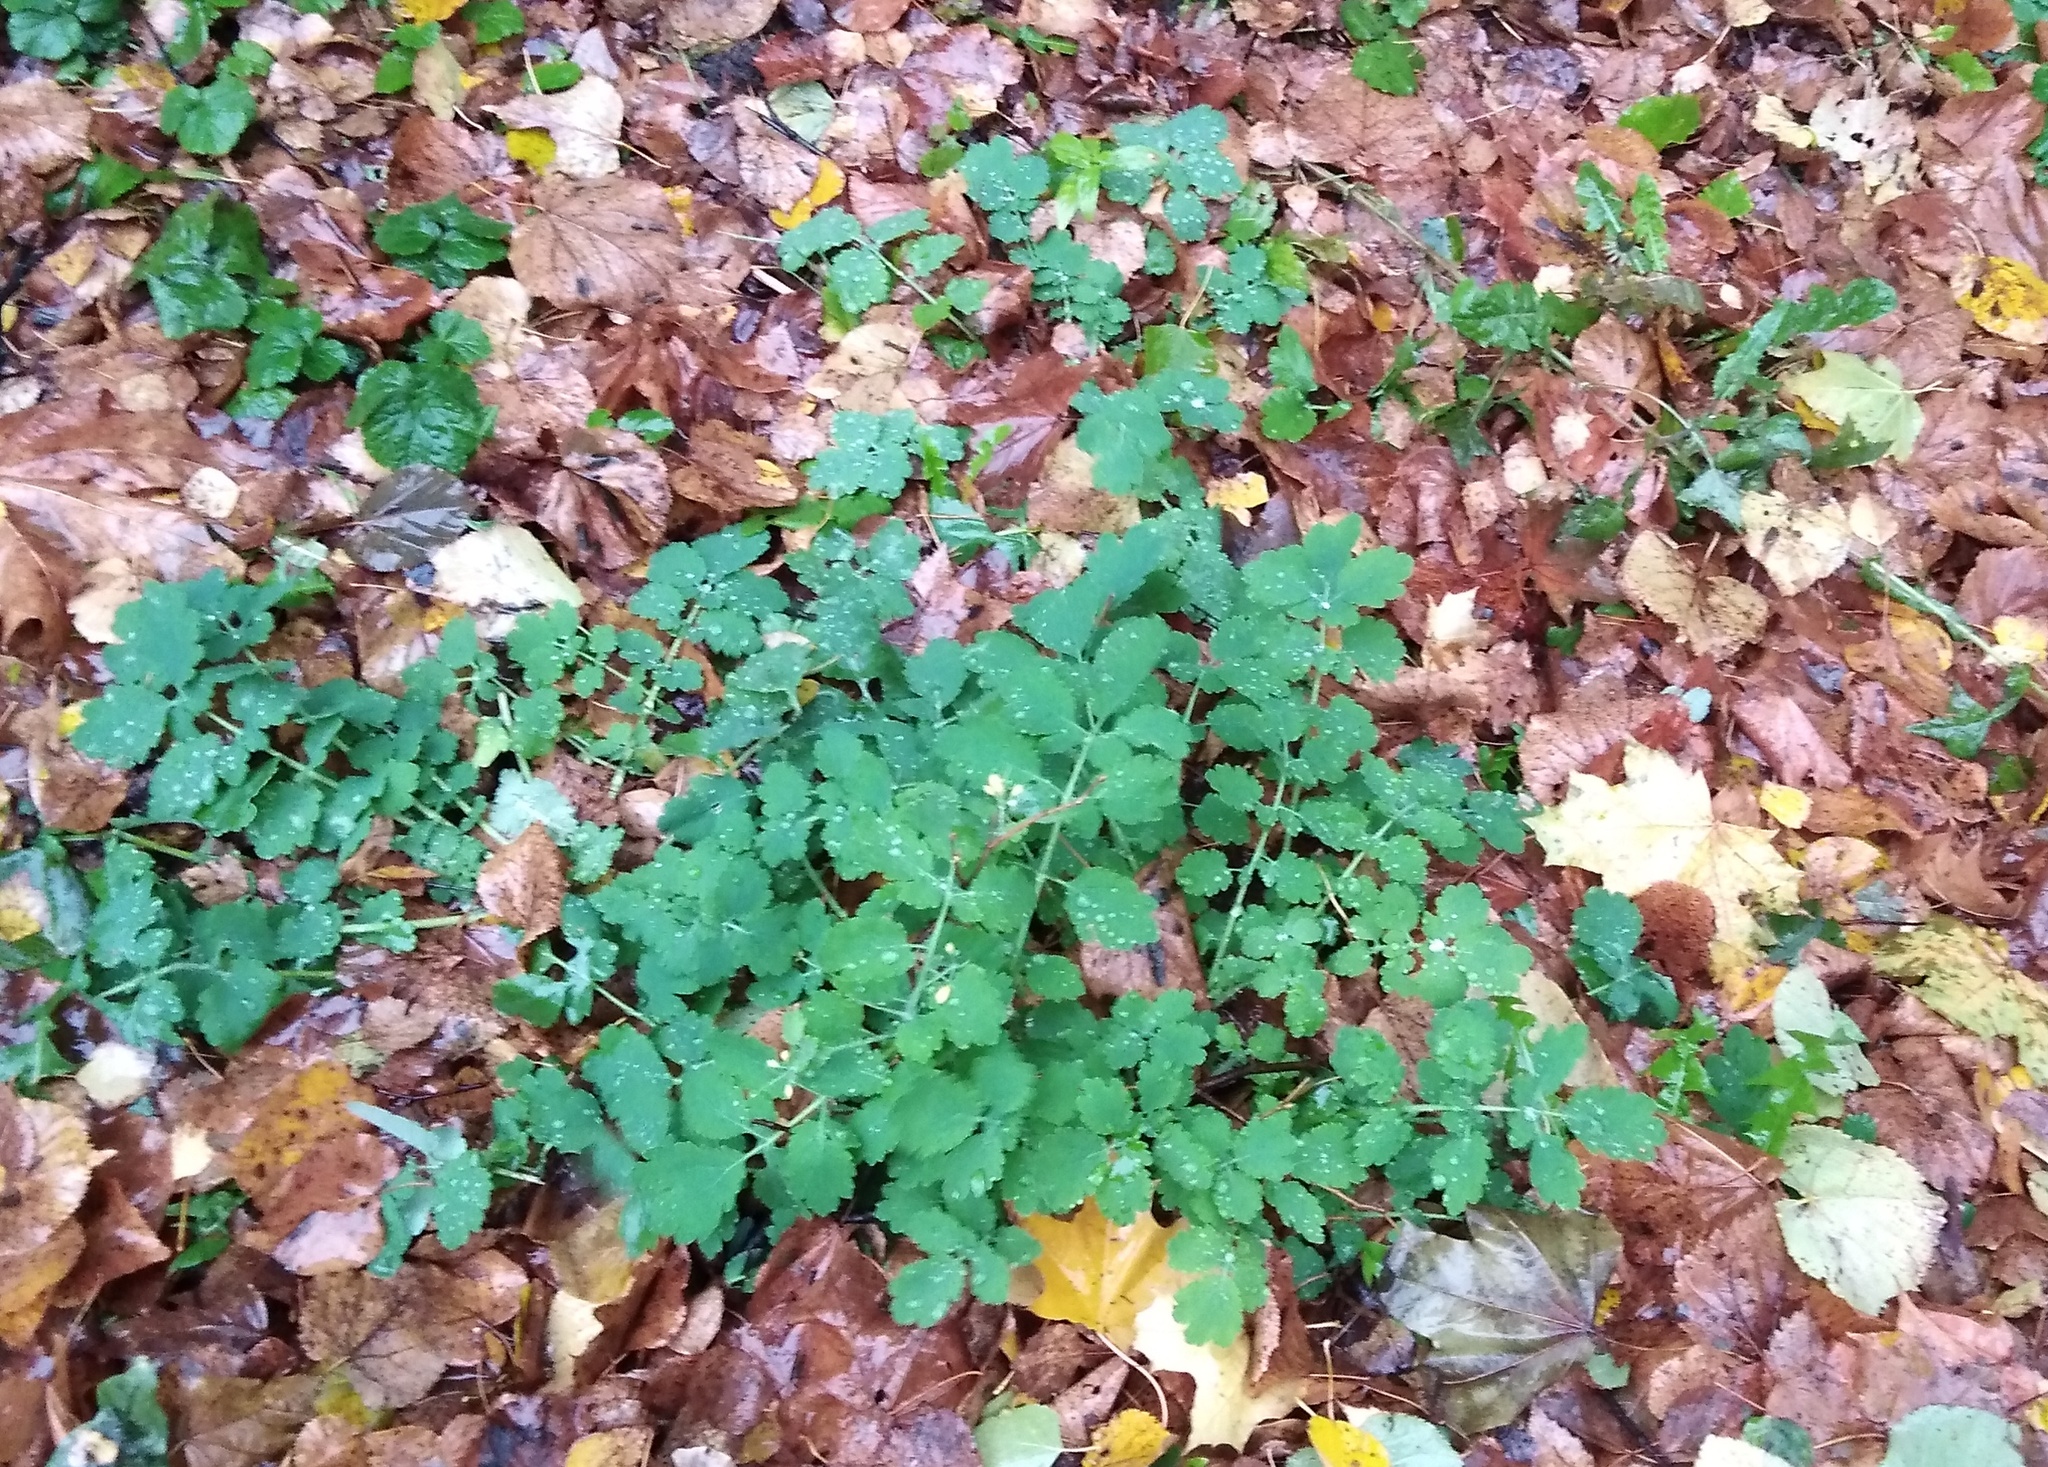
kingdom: Plantae
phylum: Tracheophyta
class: Magnoliopsida
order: Ranunculales
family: Papaveraceae
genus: Chelidonium
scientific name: Chelidonium majus
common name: Greater celandine
